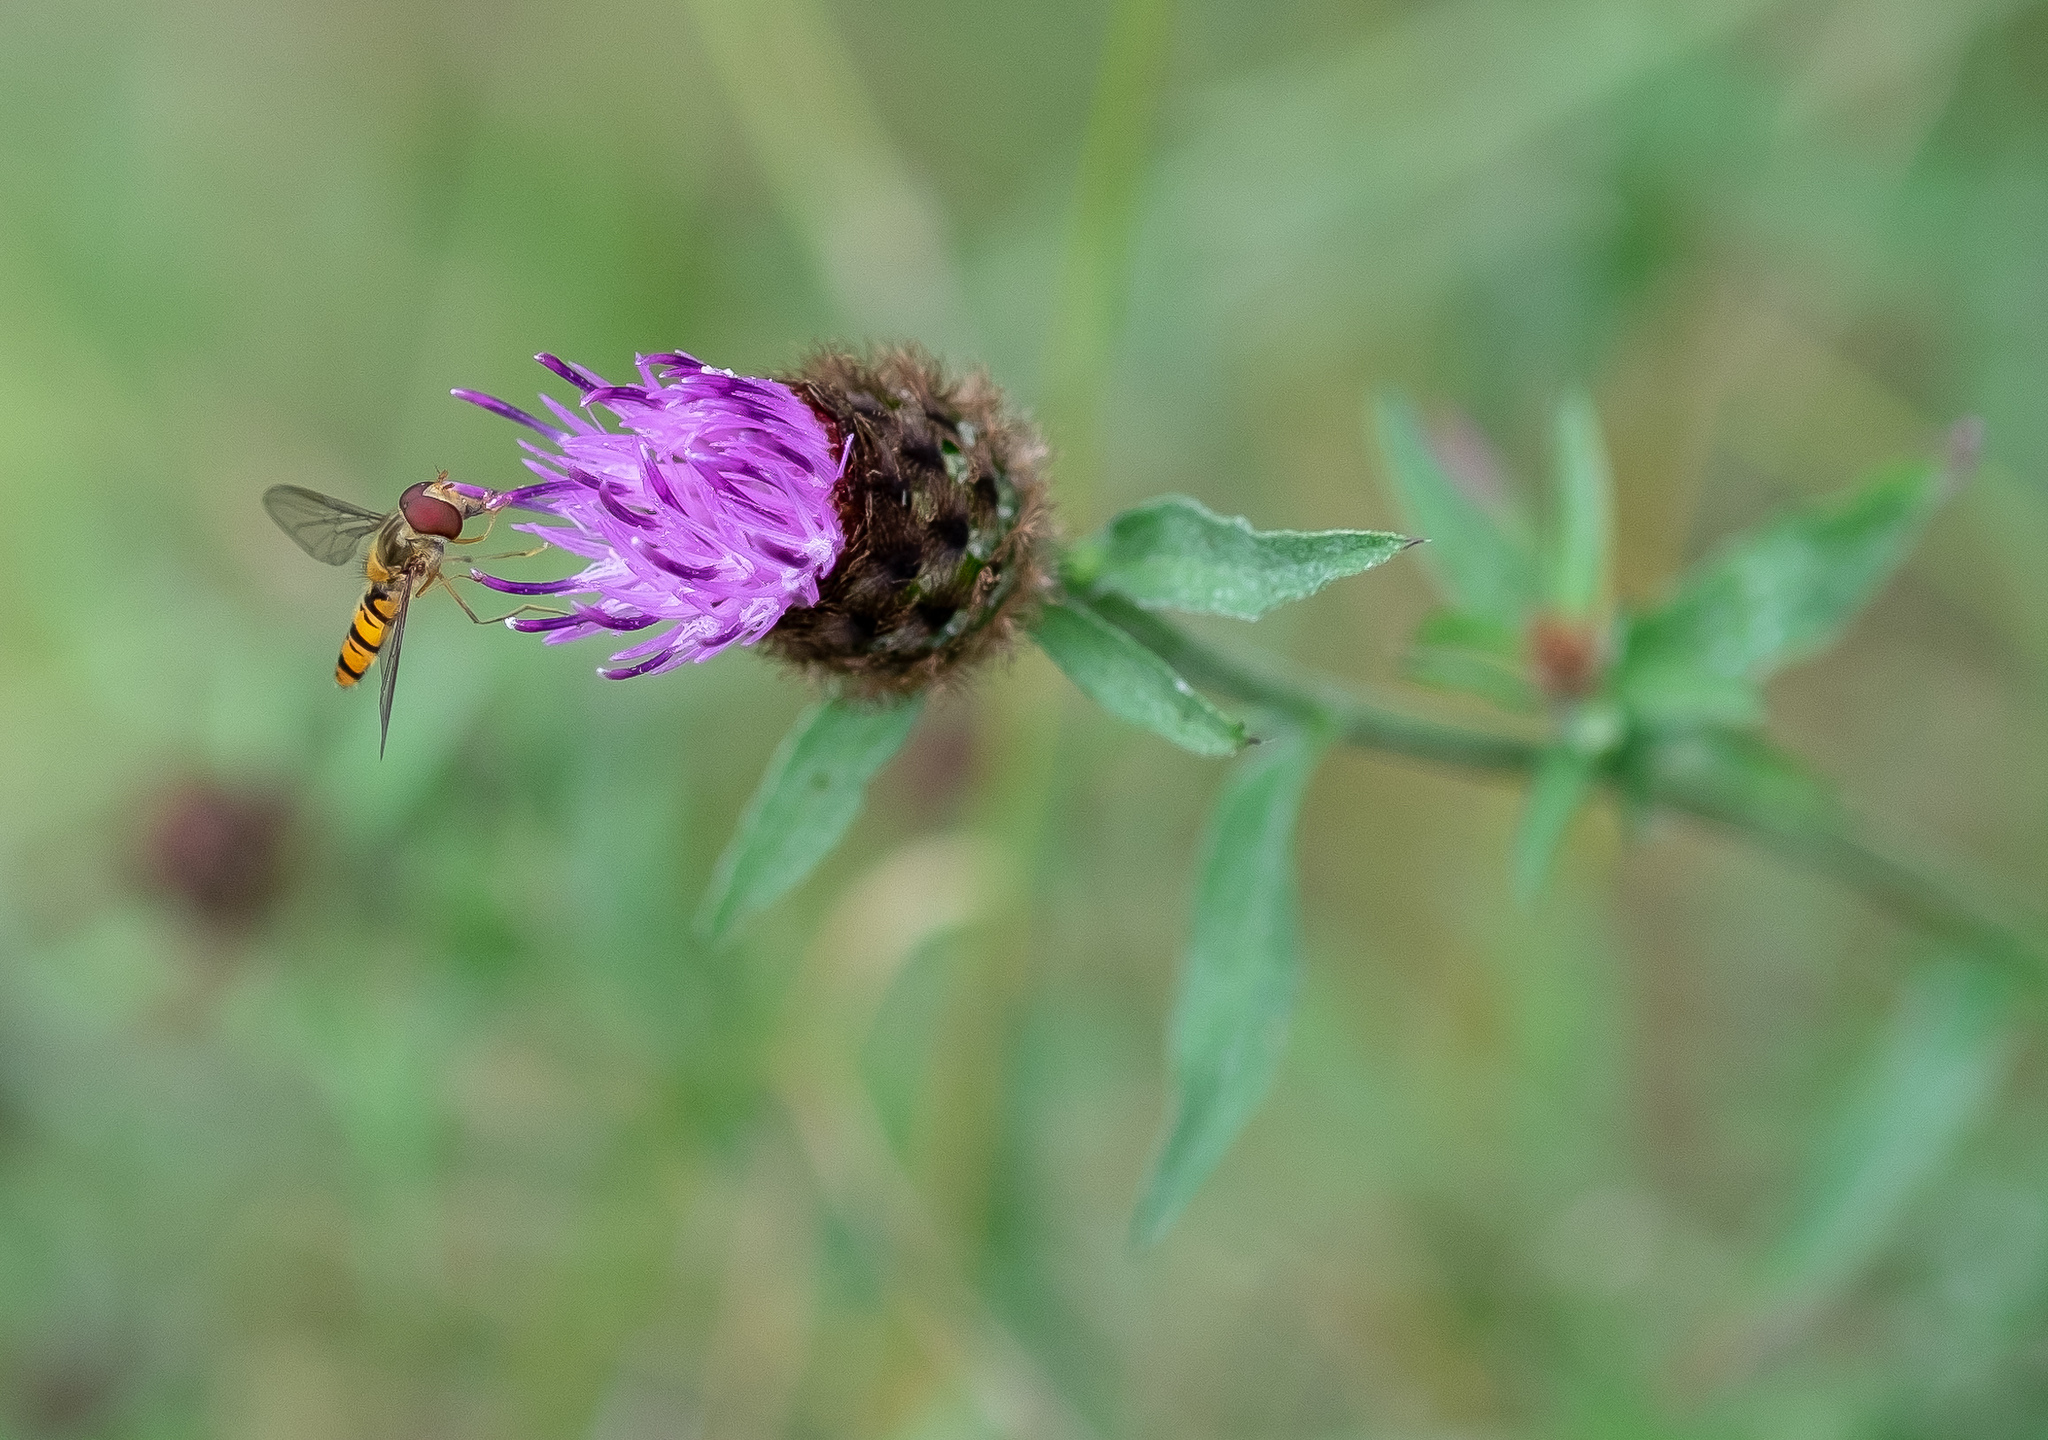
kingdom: Plantae
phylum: Tracheophyta
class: Magnoliopsida
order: Asterales
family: Asteraceae
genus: Centaurea
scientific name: Centaurea nigra
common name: Lesser knapweed
